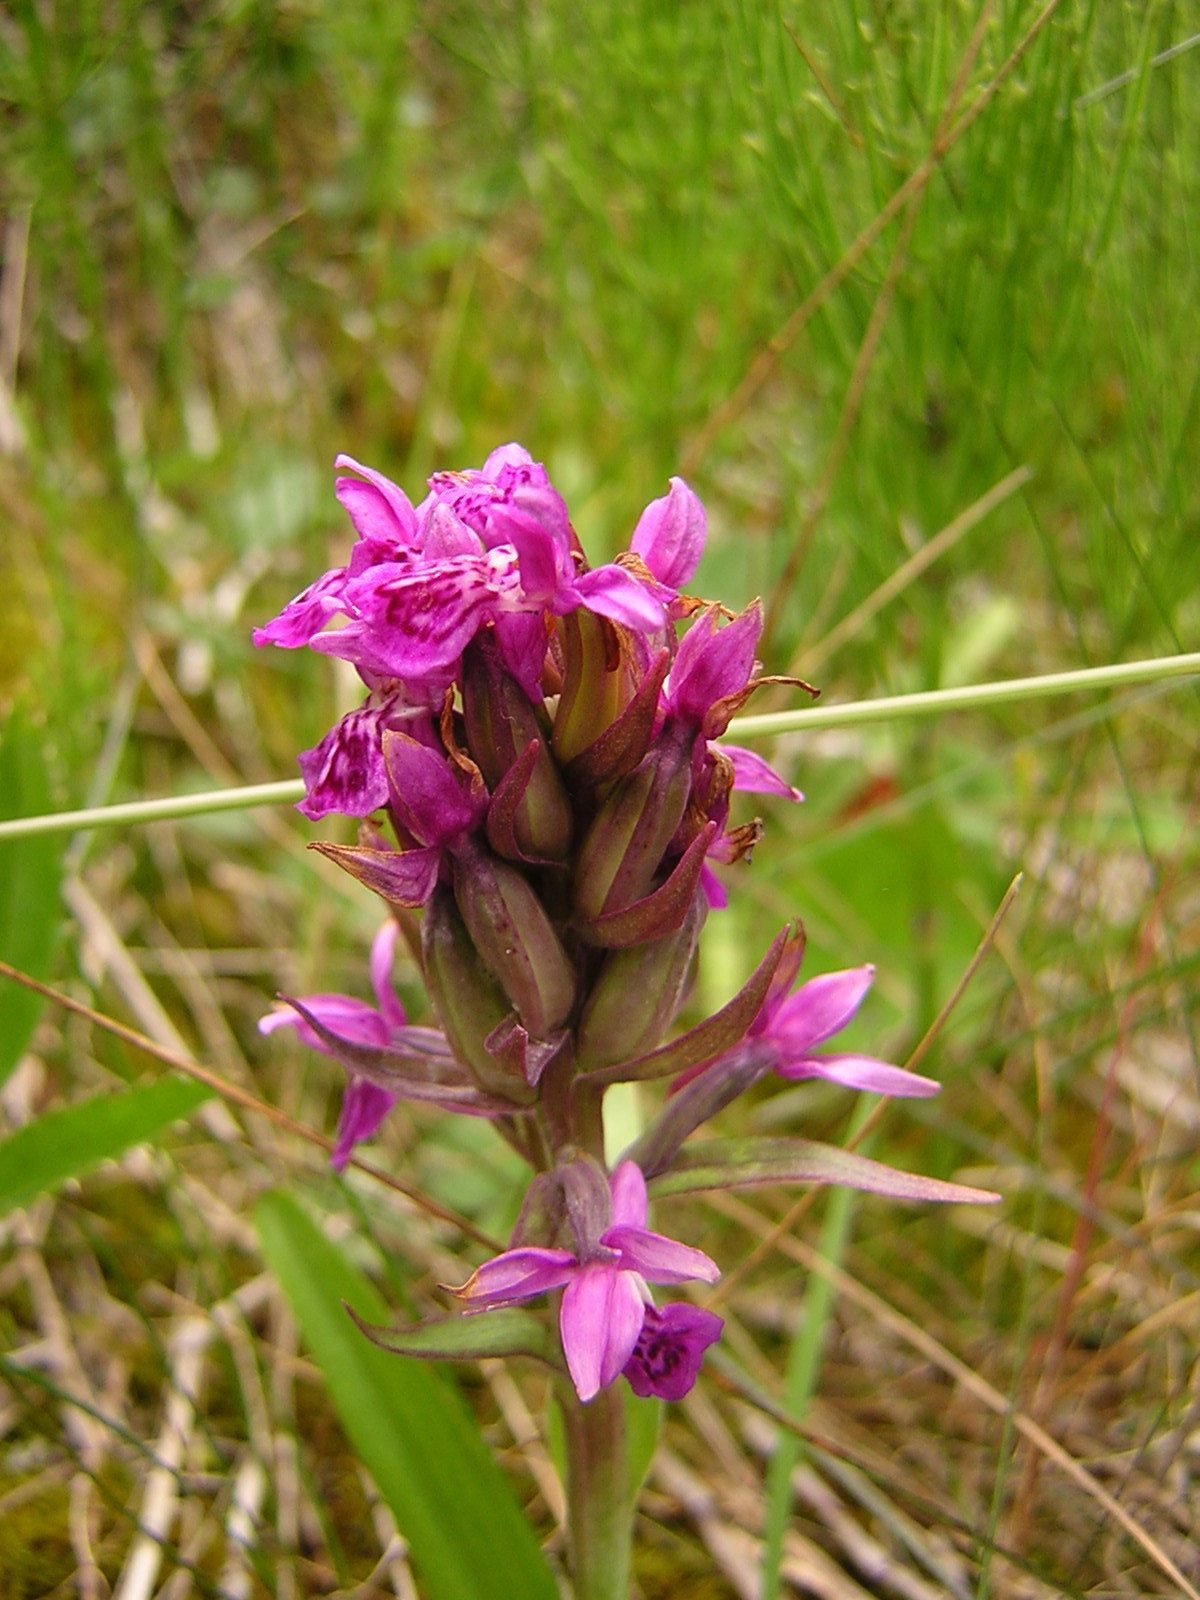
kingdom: Plantae
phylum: Tracheophyta
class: Liliopsida
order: Asparagales
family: Orchidaceae
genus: Dactylorhiza
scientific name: Dactylorhiza incarnata
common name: Early marsh-orchid
